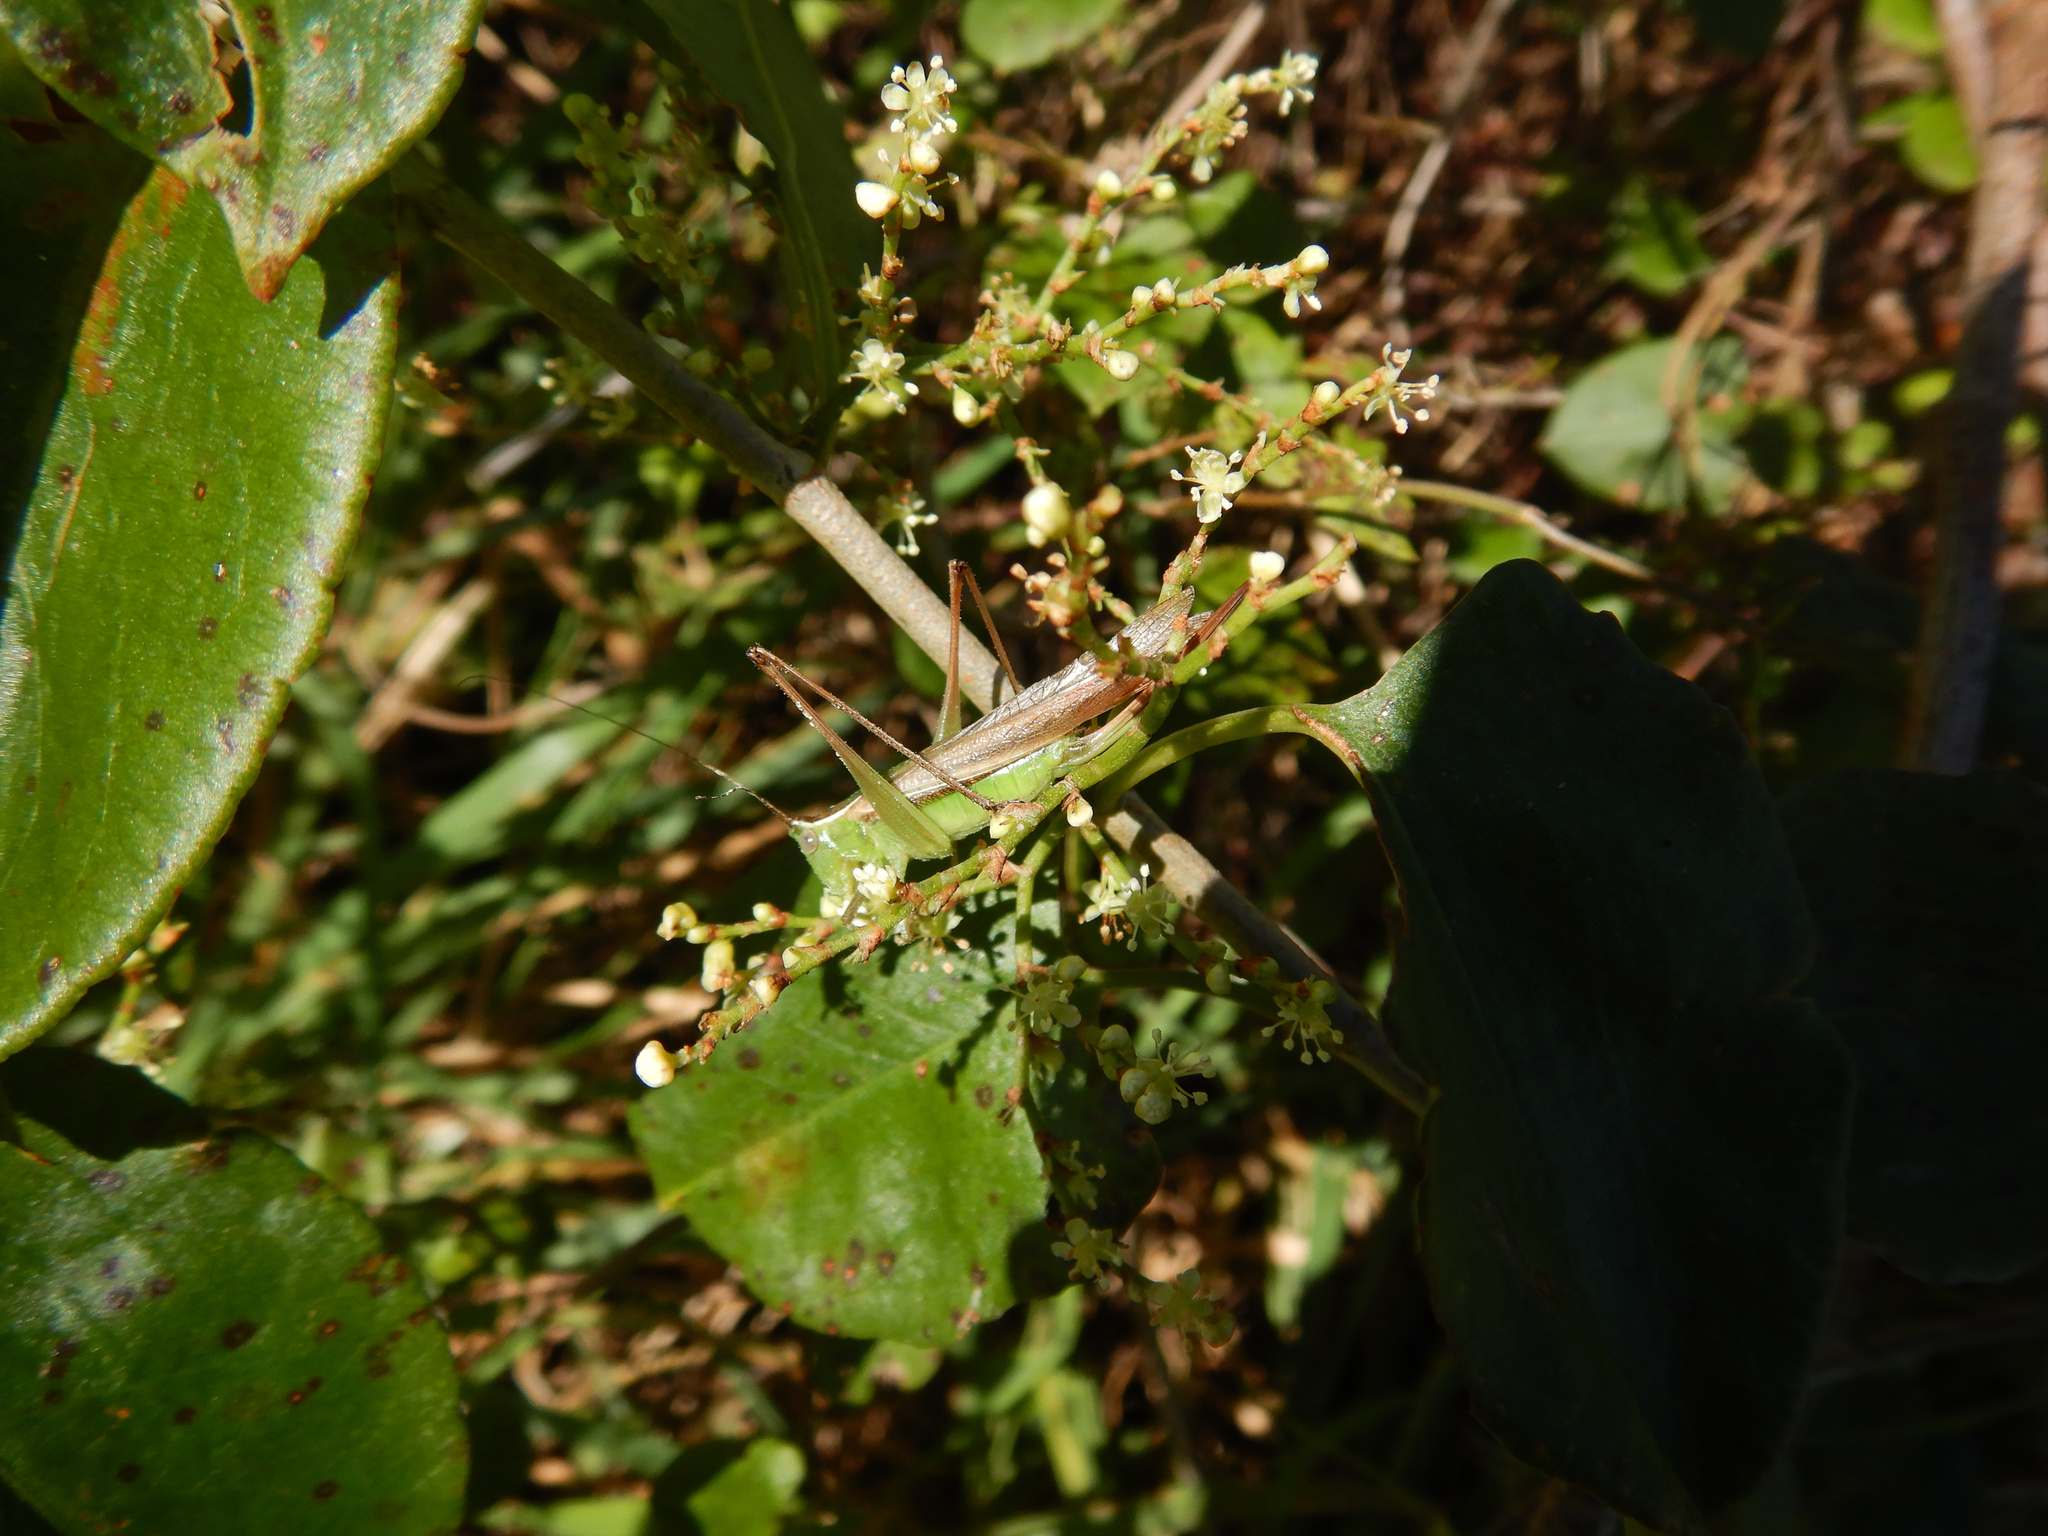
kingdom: Animalia
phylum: Arthropoda
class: Insecta
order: Orthoptera
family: Tettigoniidae
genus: Conocephalus
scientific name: Conocephalus albescens
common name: Whitish meadow katydid
